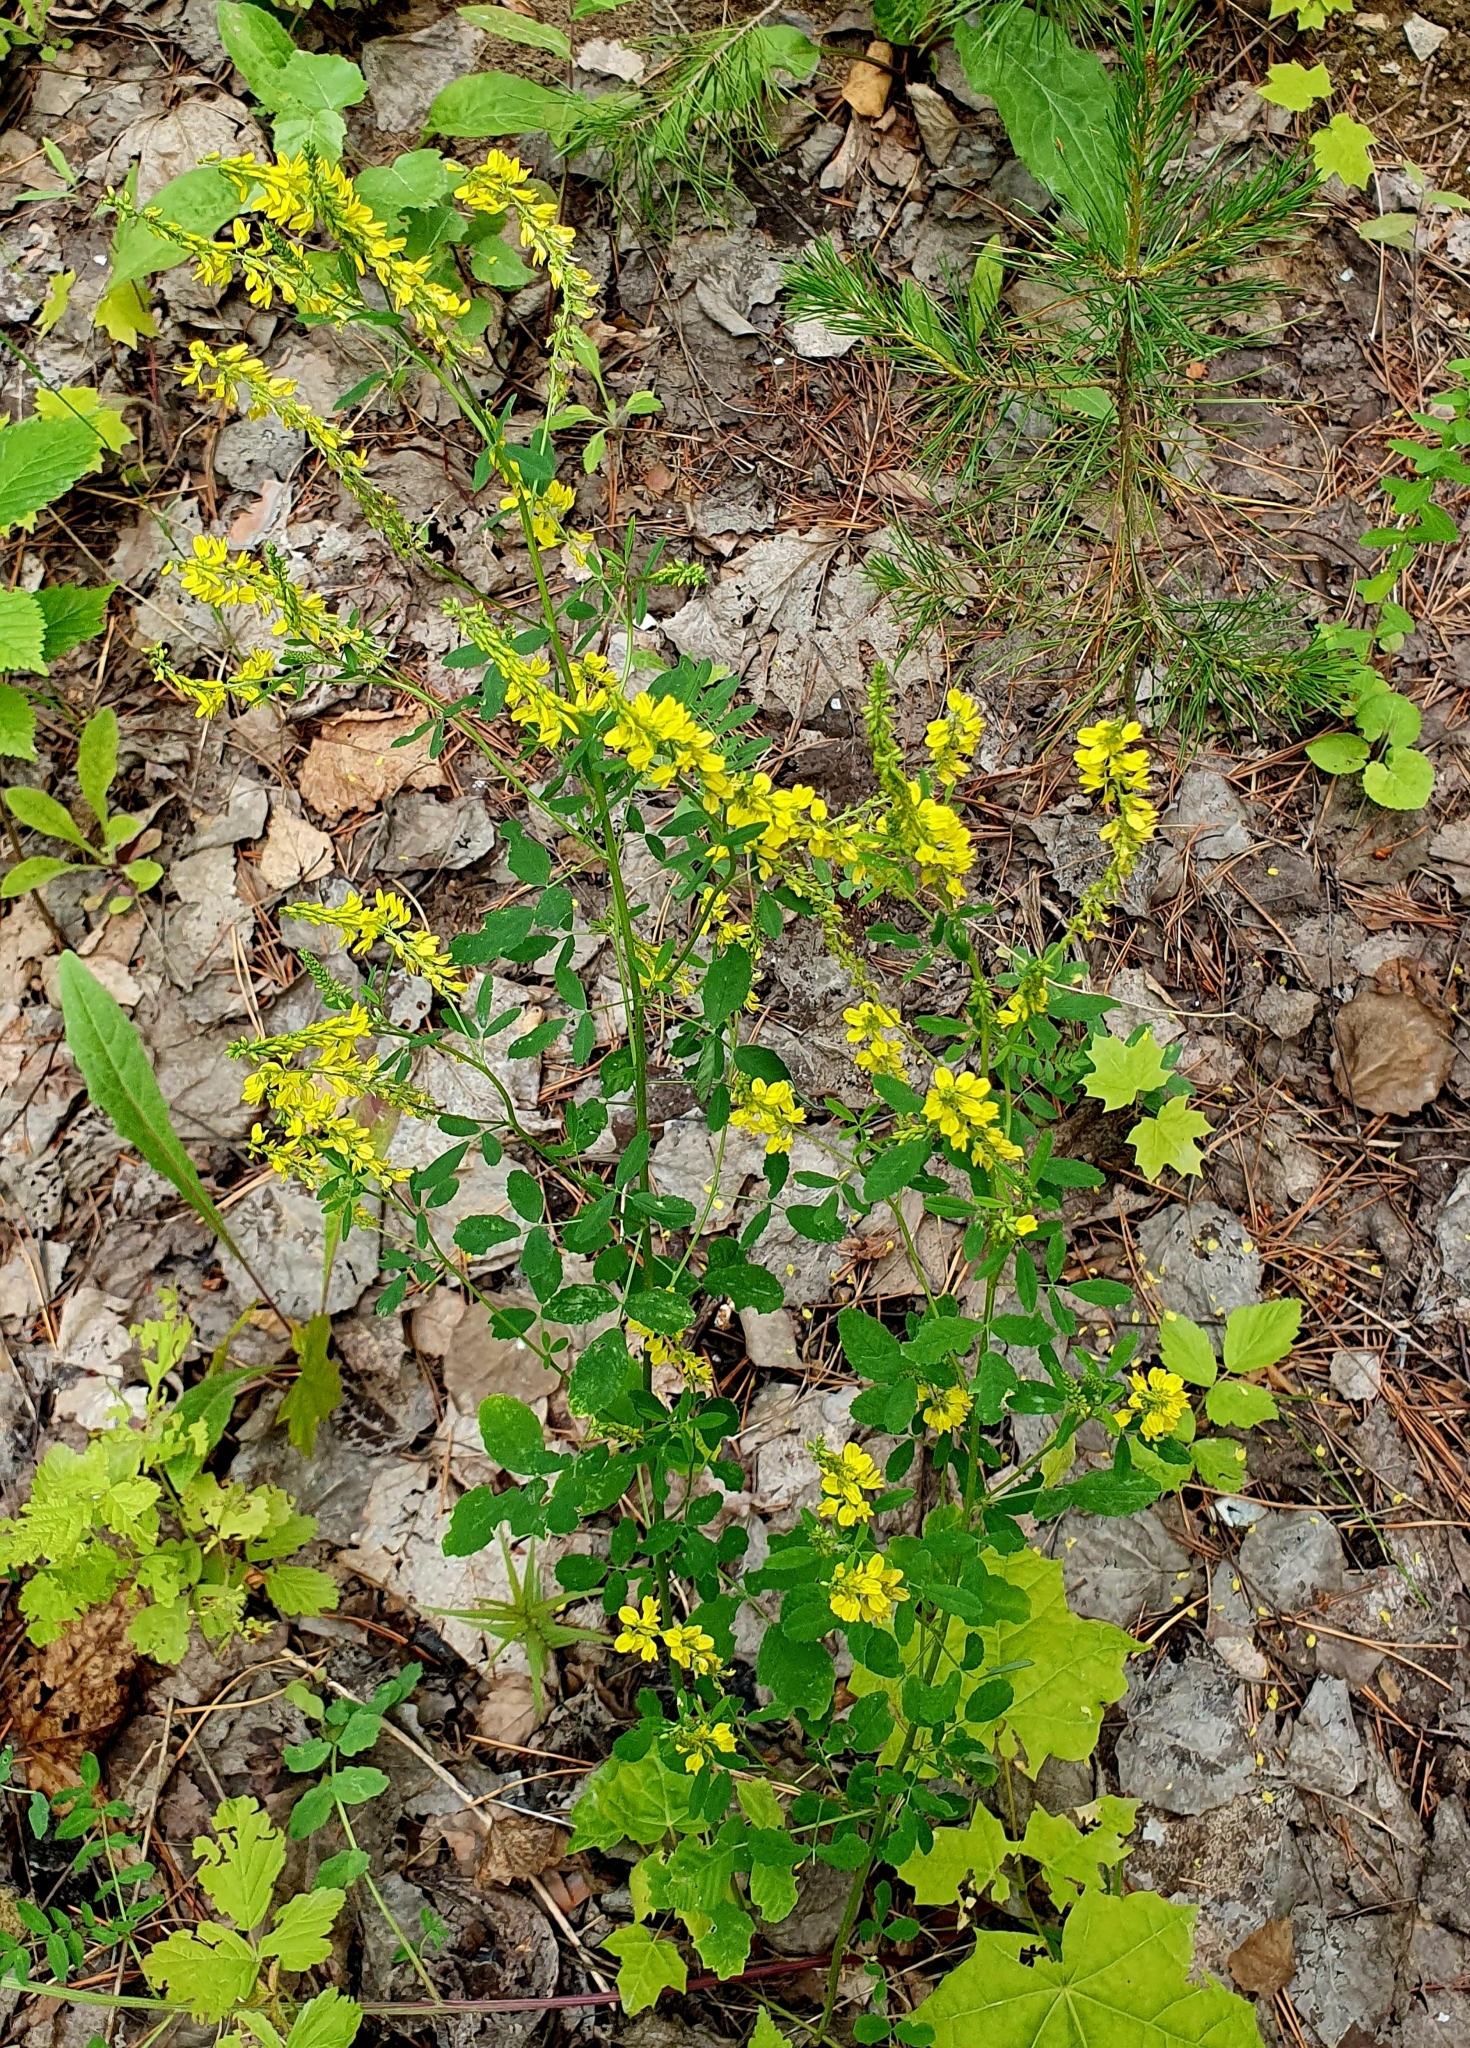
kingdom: Plantae
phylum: Tracheophyta
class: Magnoliopsida
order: Fabales
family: Fabaceae
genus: Melilotus
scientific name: Melilotus officinalis
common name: Sweetclover
